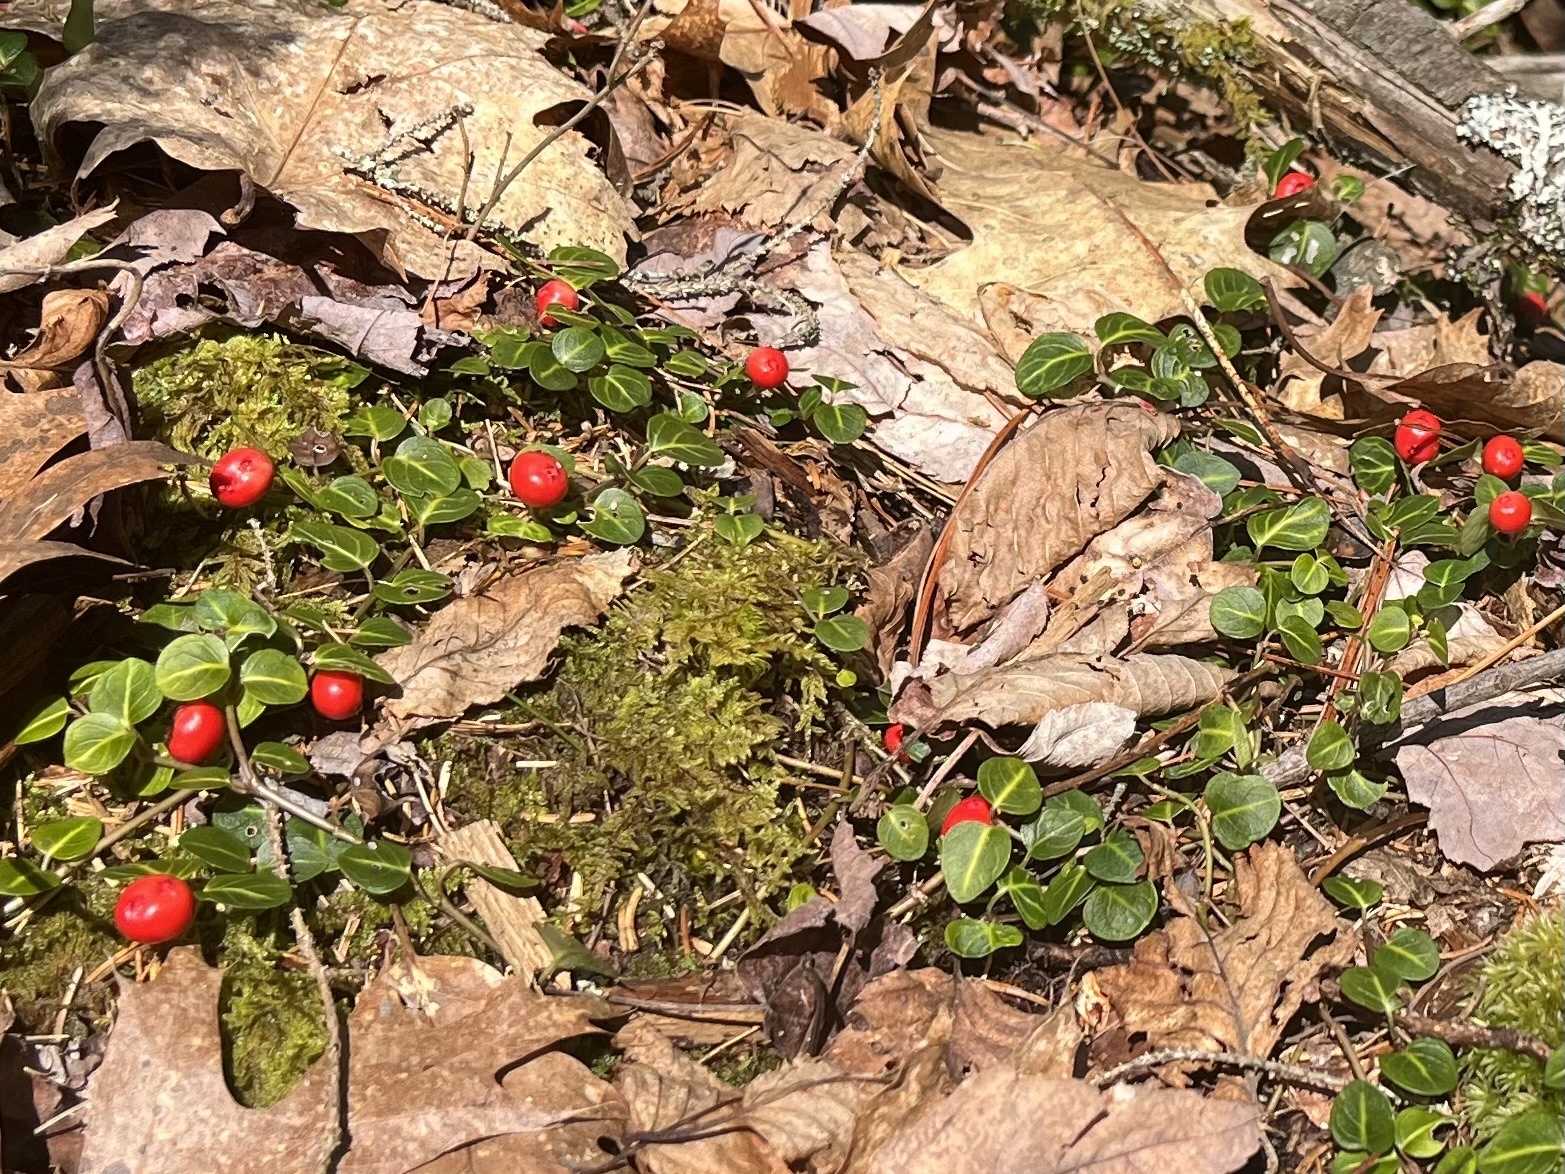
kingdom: Plantae
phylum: Tracheophyta
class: Magnoliopsida
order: Gentianales
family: Rubiaceae
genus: Mitchella
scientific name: Mitchella repens
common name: Partridge-berry
